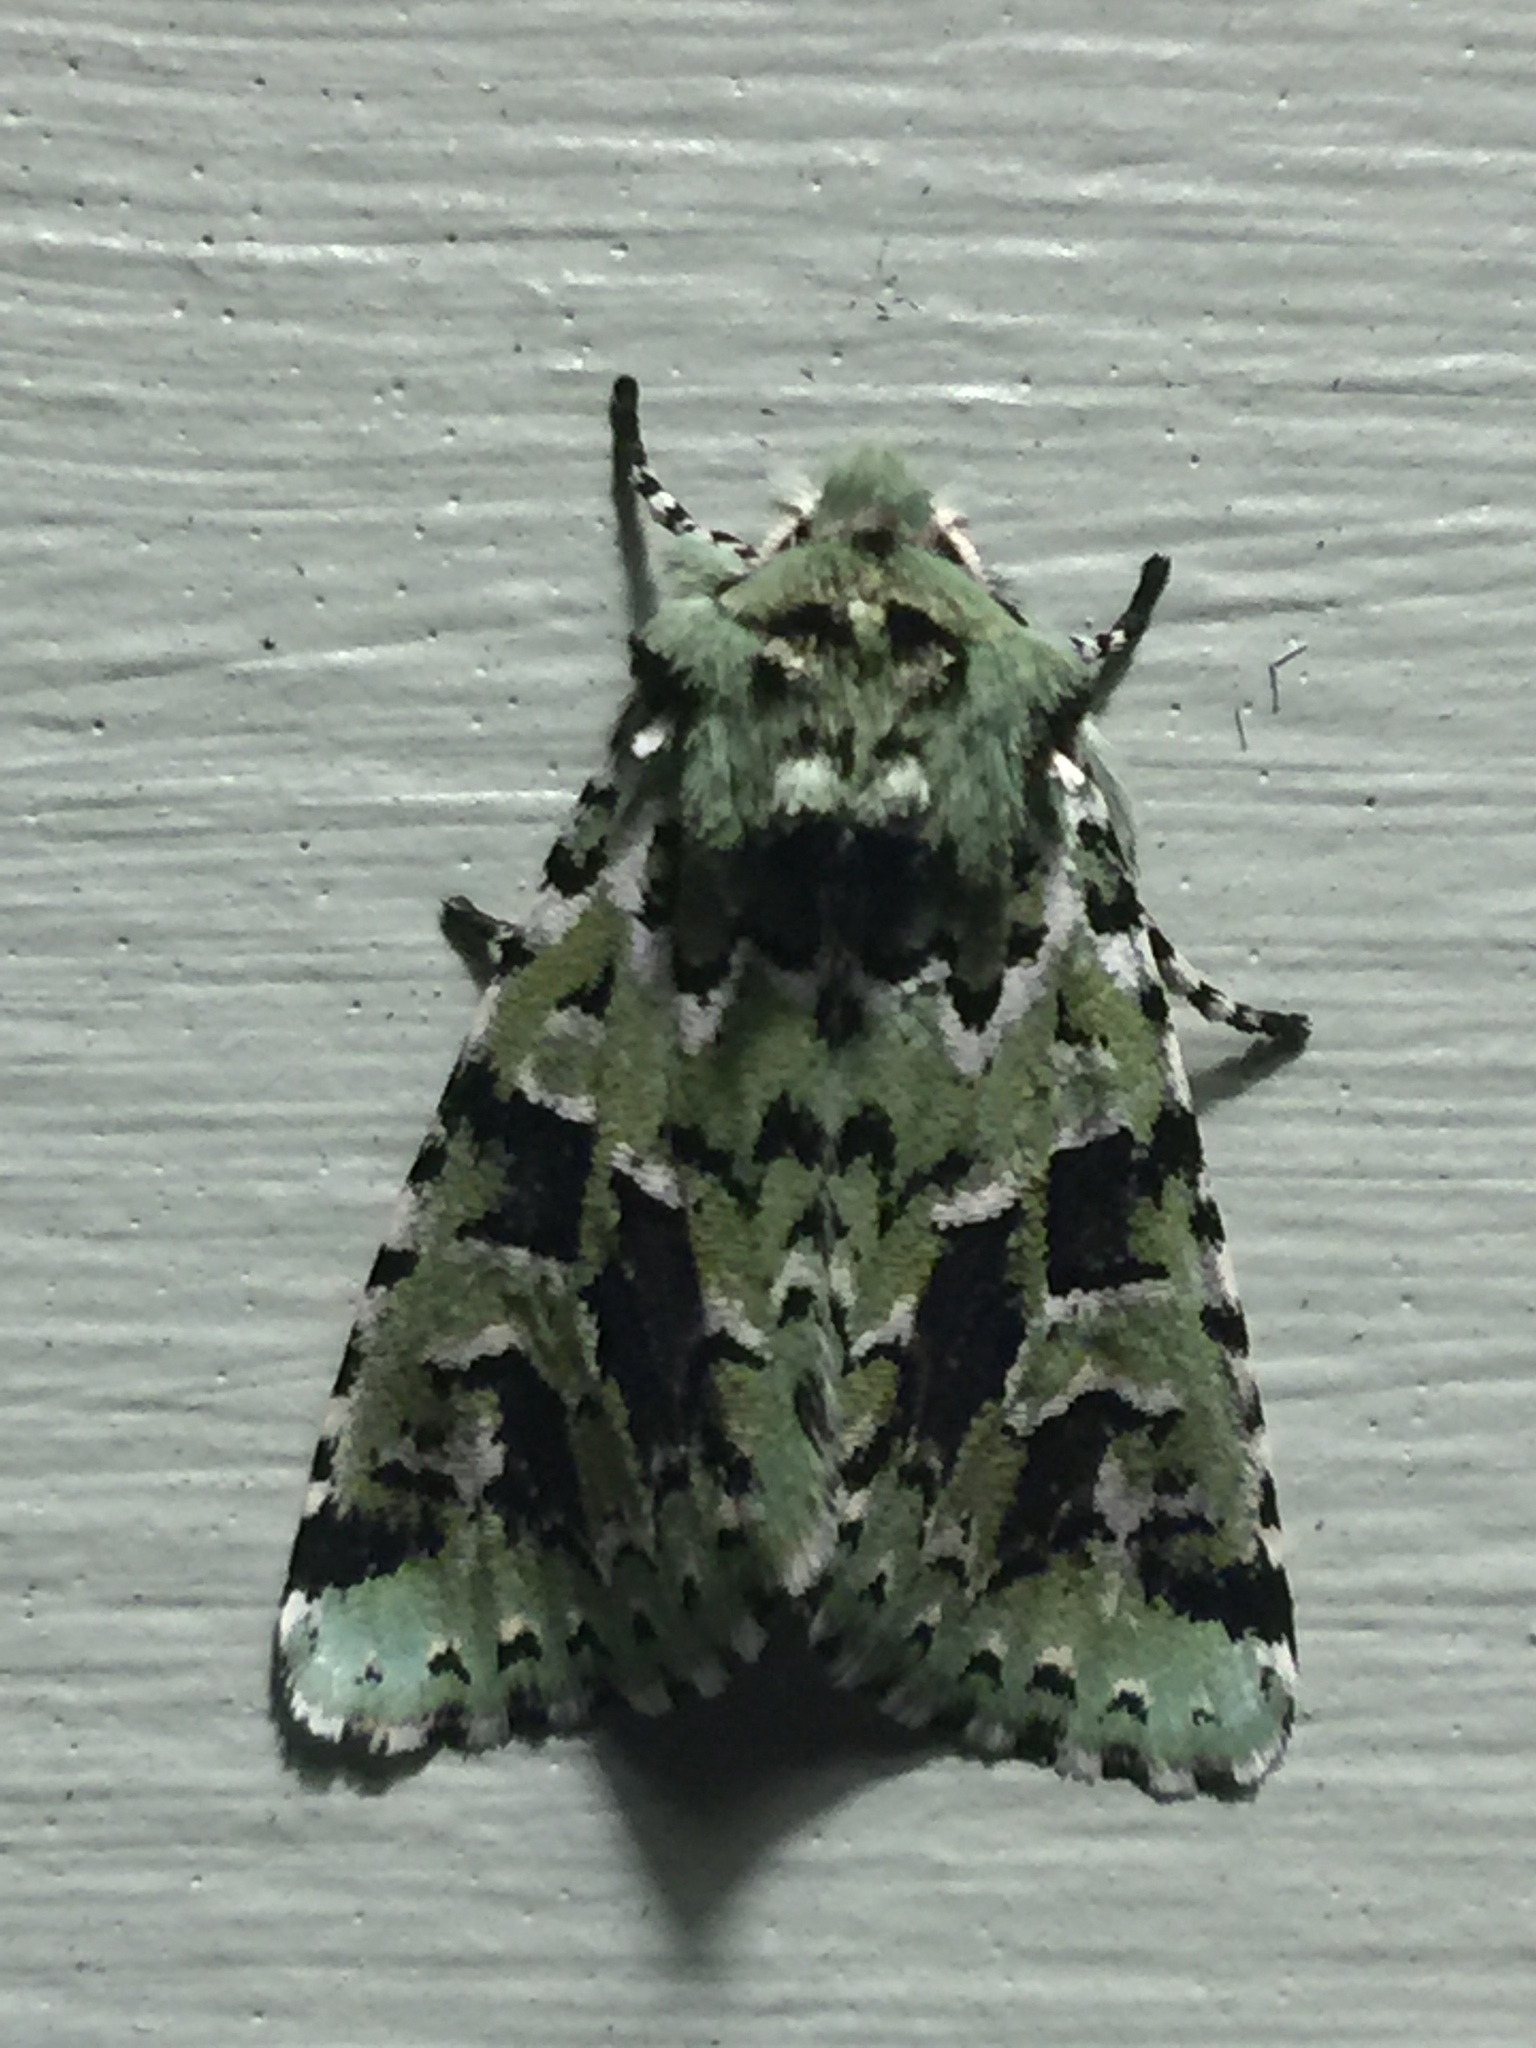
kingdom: Animalia
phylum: Arthropoda
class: Insecta
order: Lepidoptera
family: Noctuidae
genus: Feralia
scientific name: Feralia comstocki
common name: Comstock's sallow
